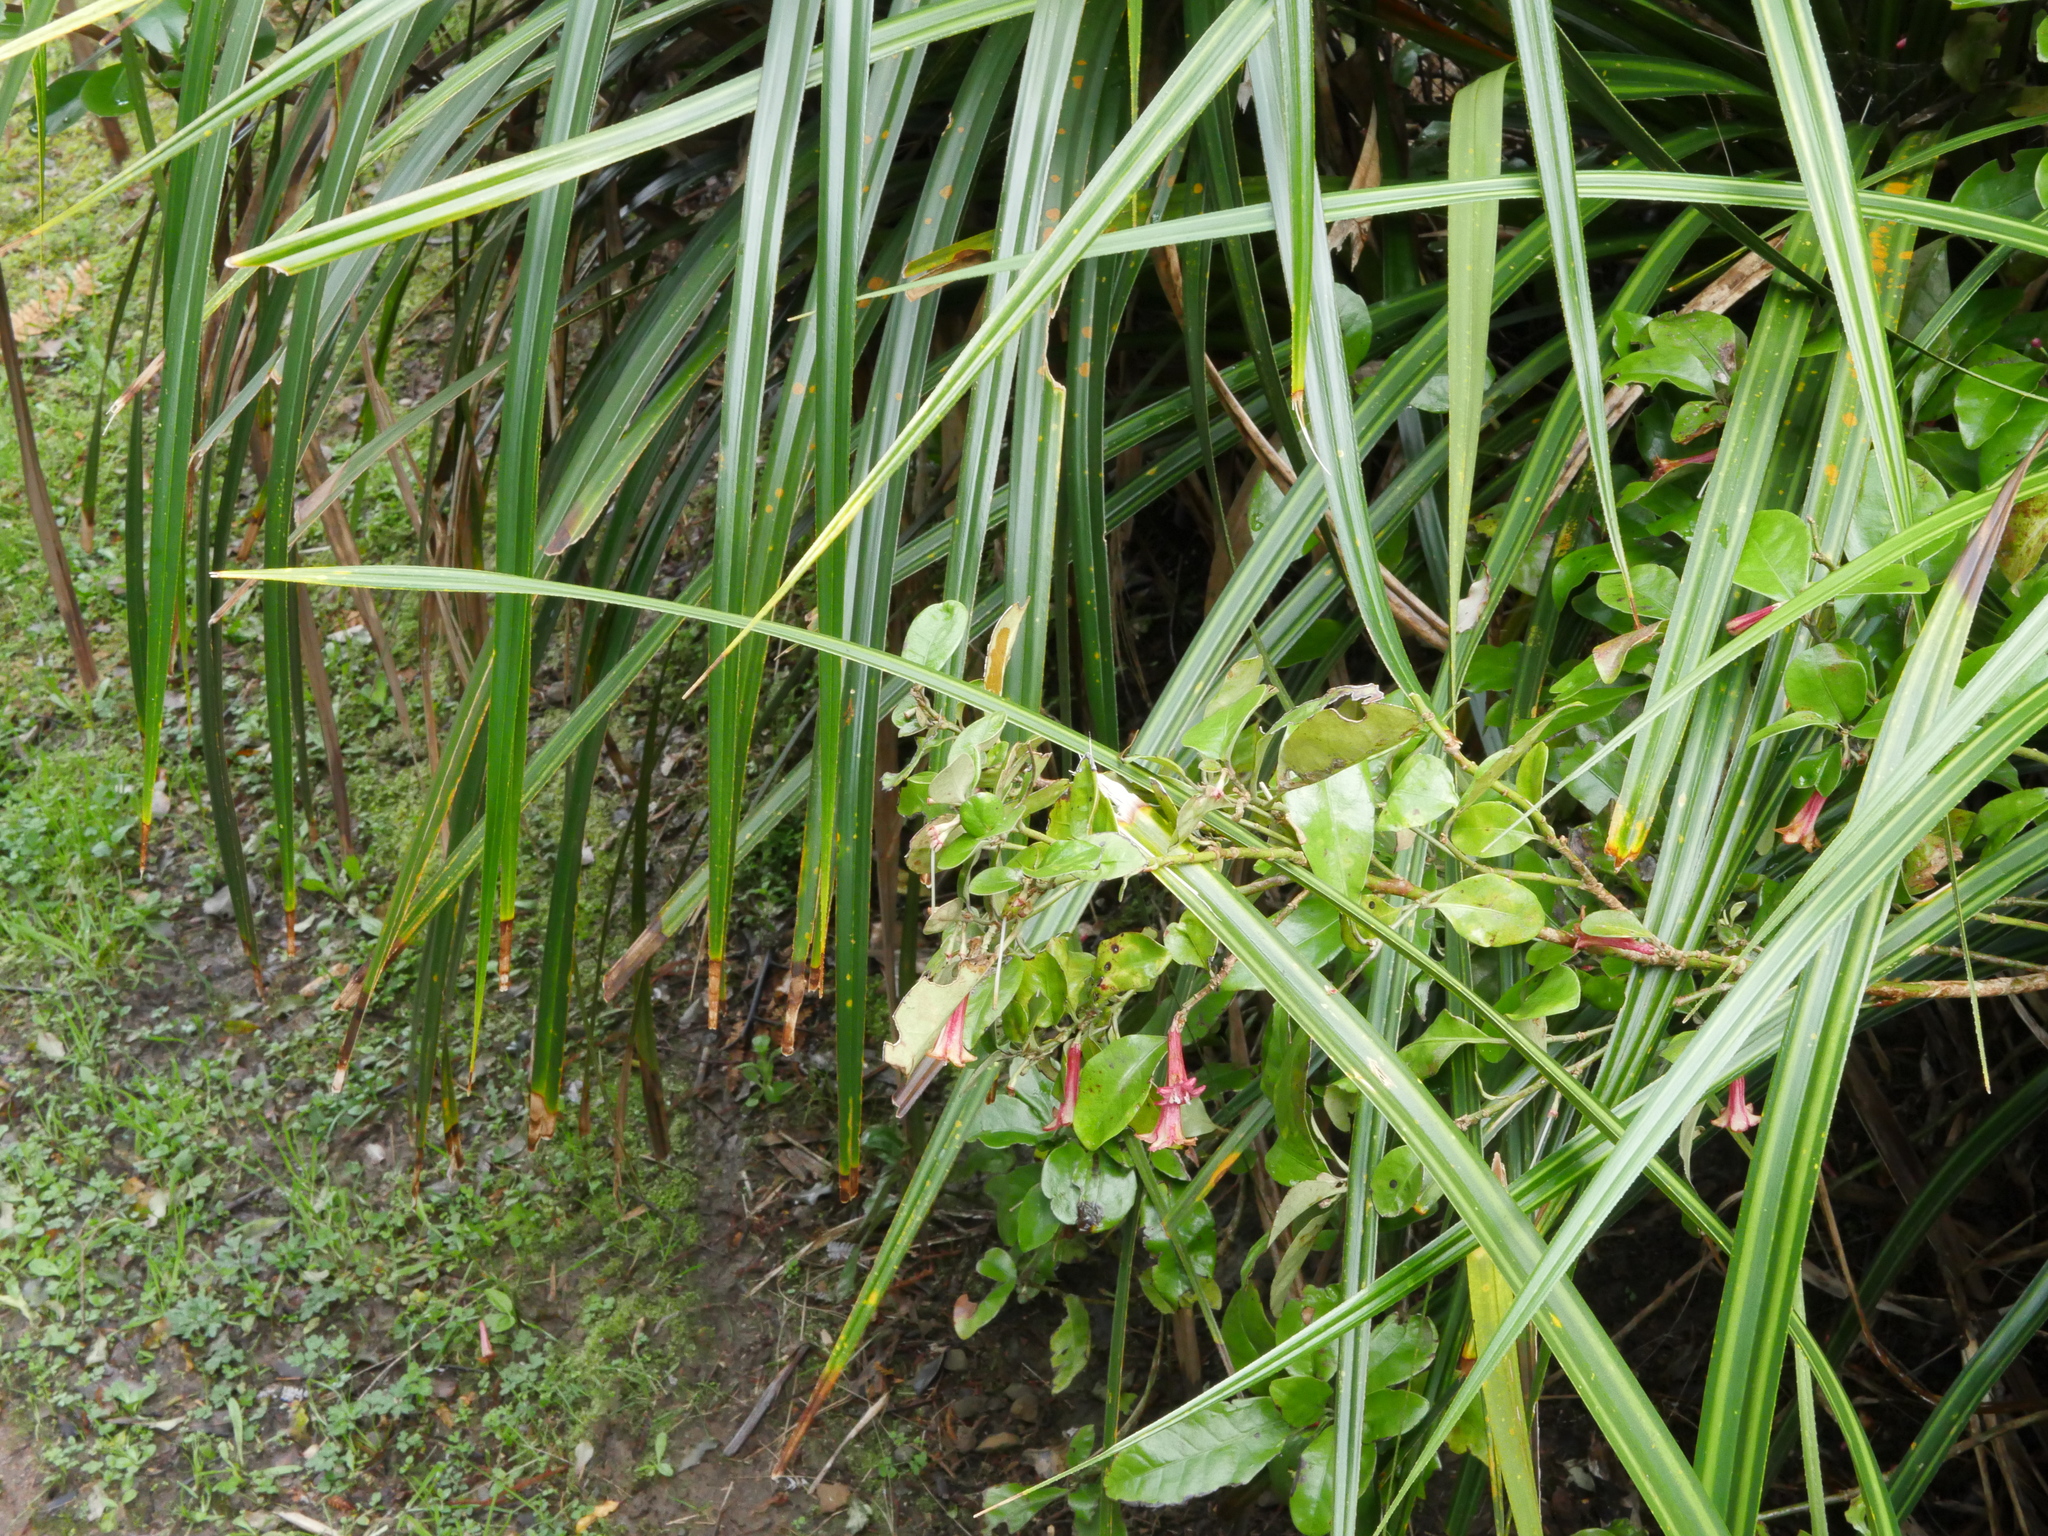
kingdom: Plantae
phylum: Tracheophyta
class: Magnoliopsida
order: Asterales
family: Alseuosmiaceae
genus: Alseuosmia
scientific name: Alseuosmia macrophylla
